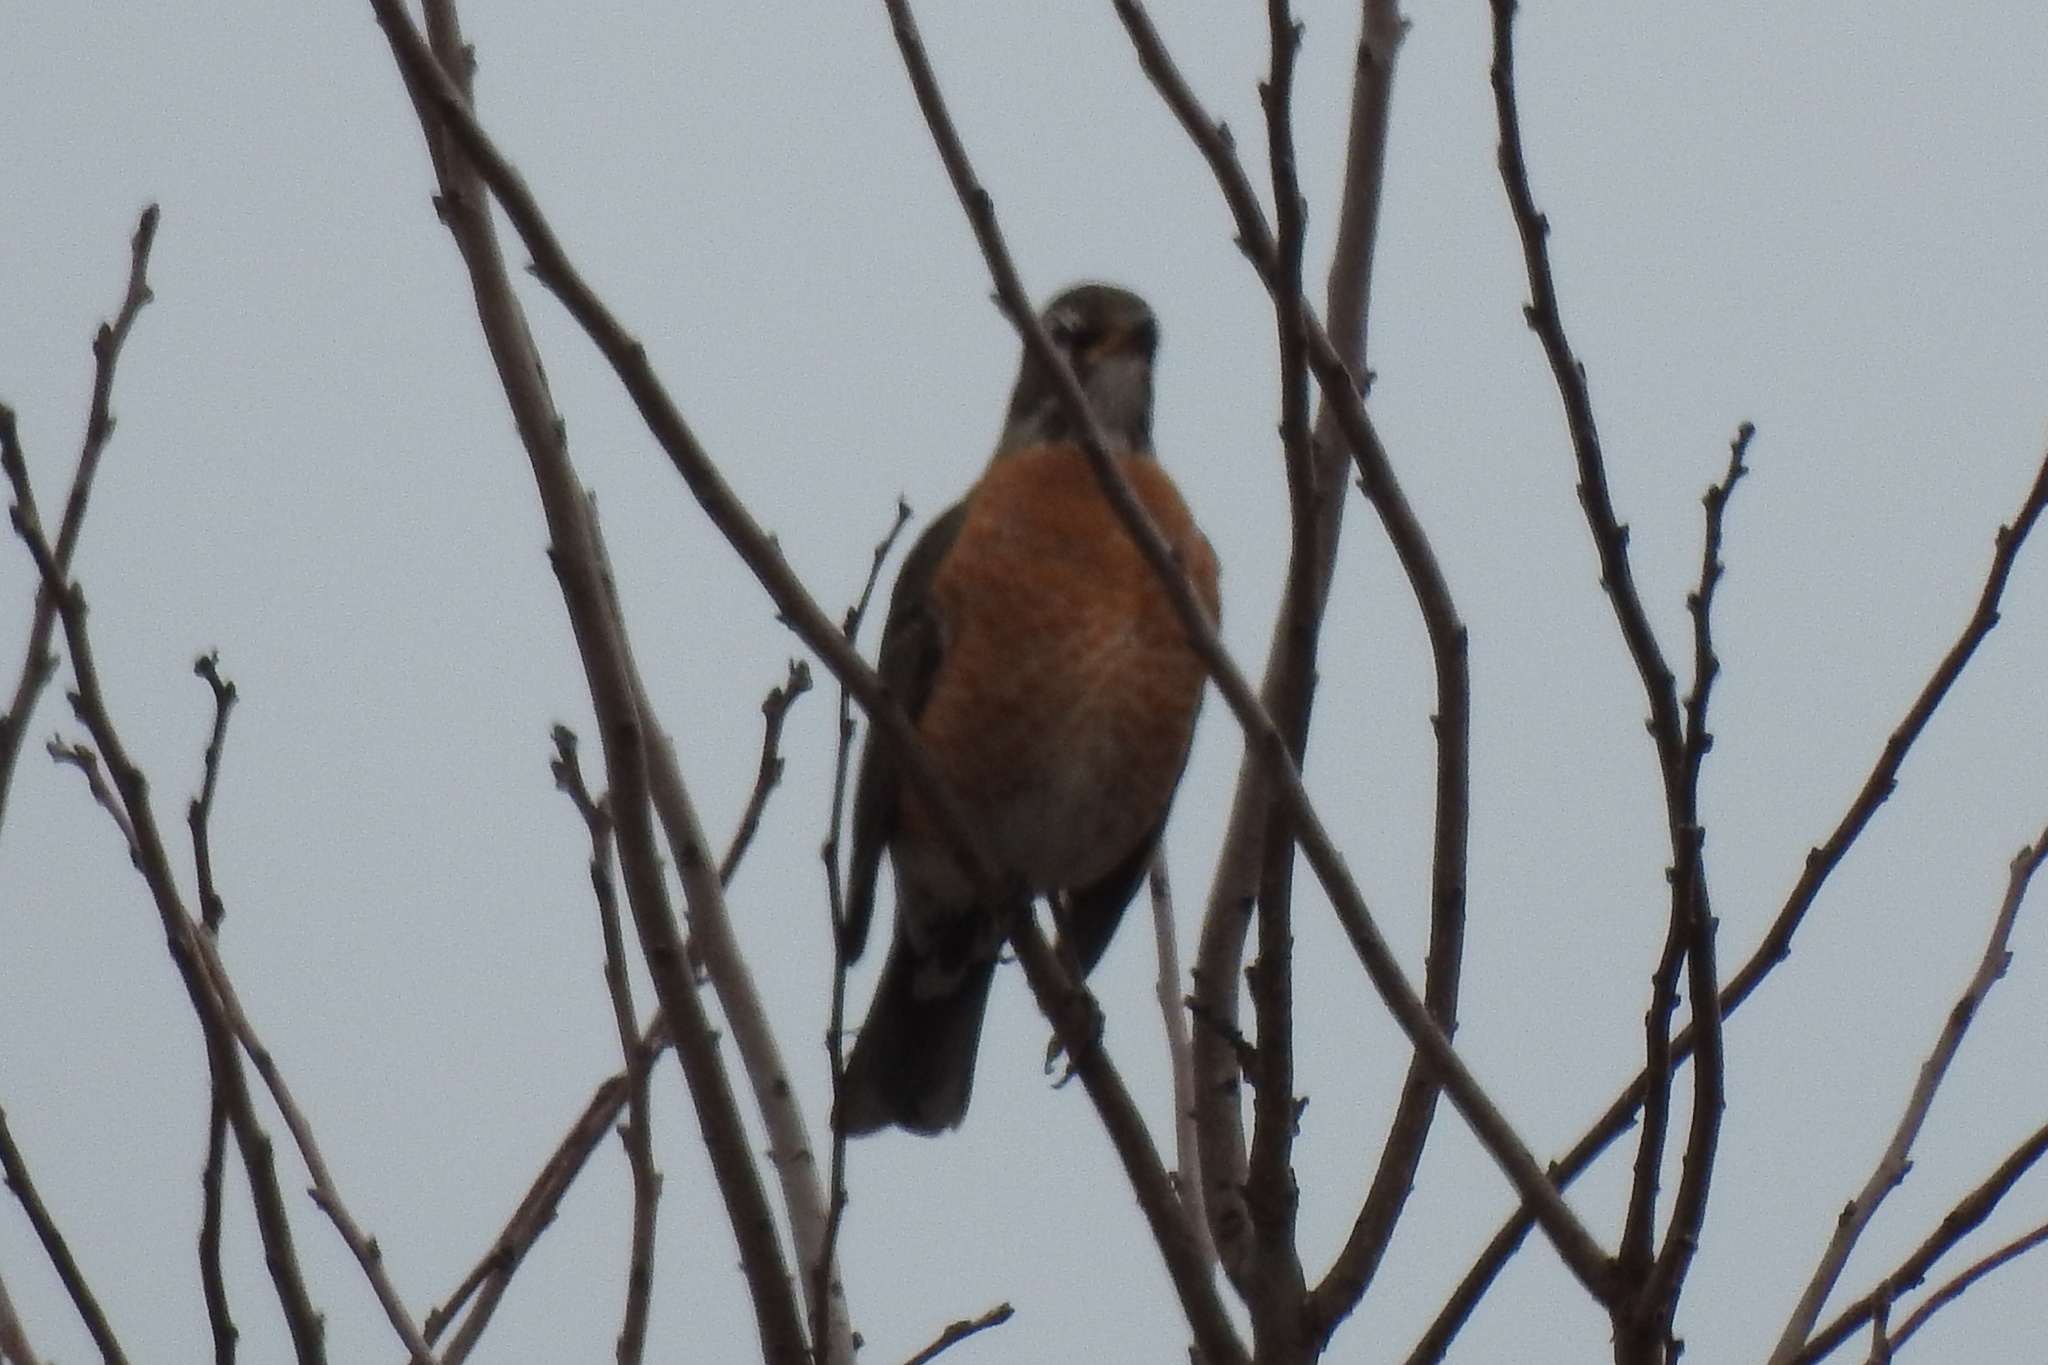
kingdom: Animalia
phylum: Chordata
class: Aves
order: Passeriformes
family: Turdidae
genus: Turdus
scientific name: Turdus migratorius
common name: American robin
